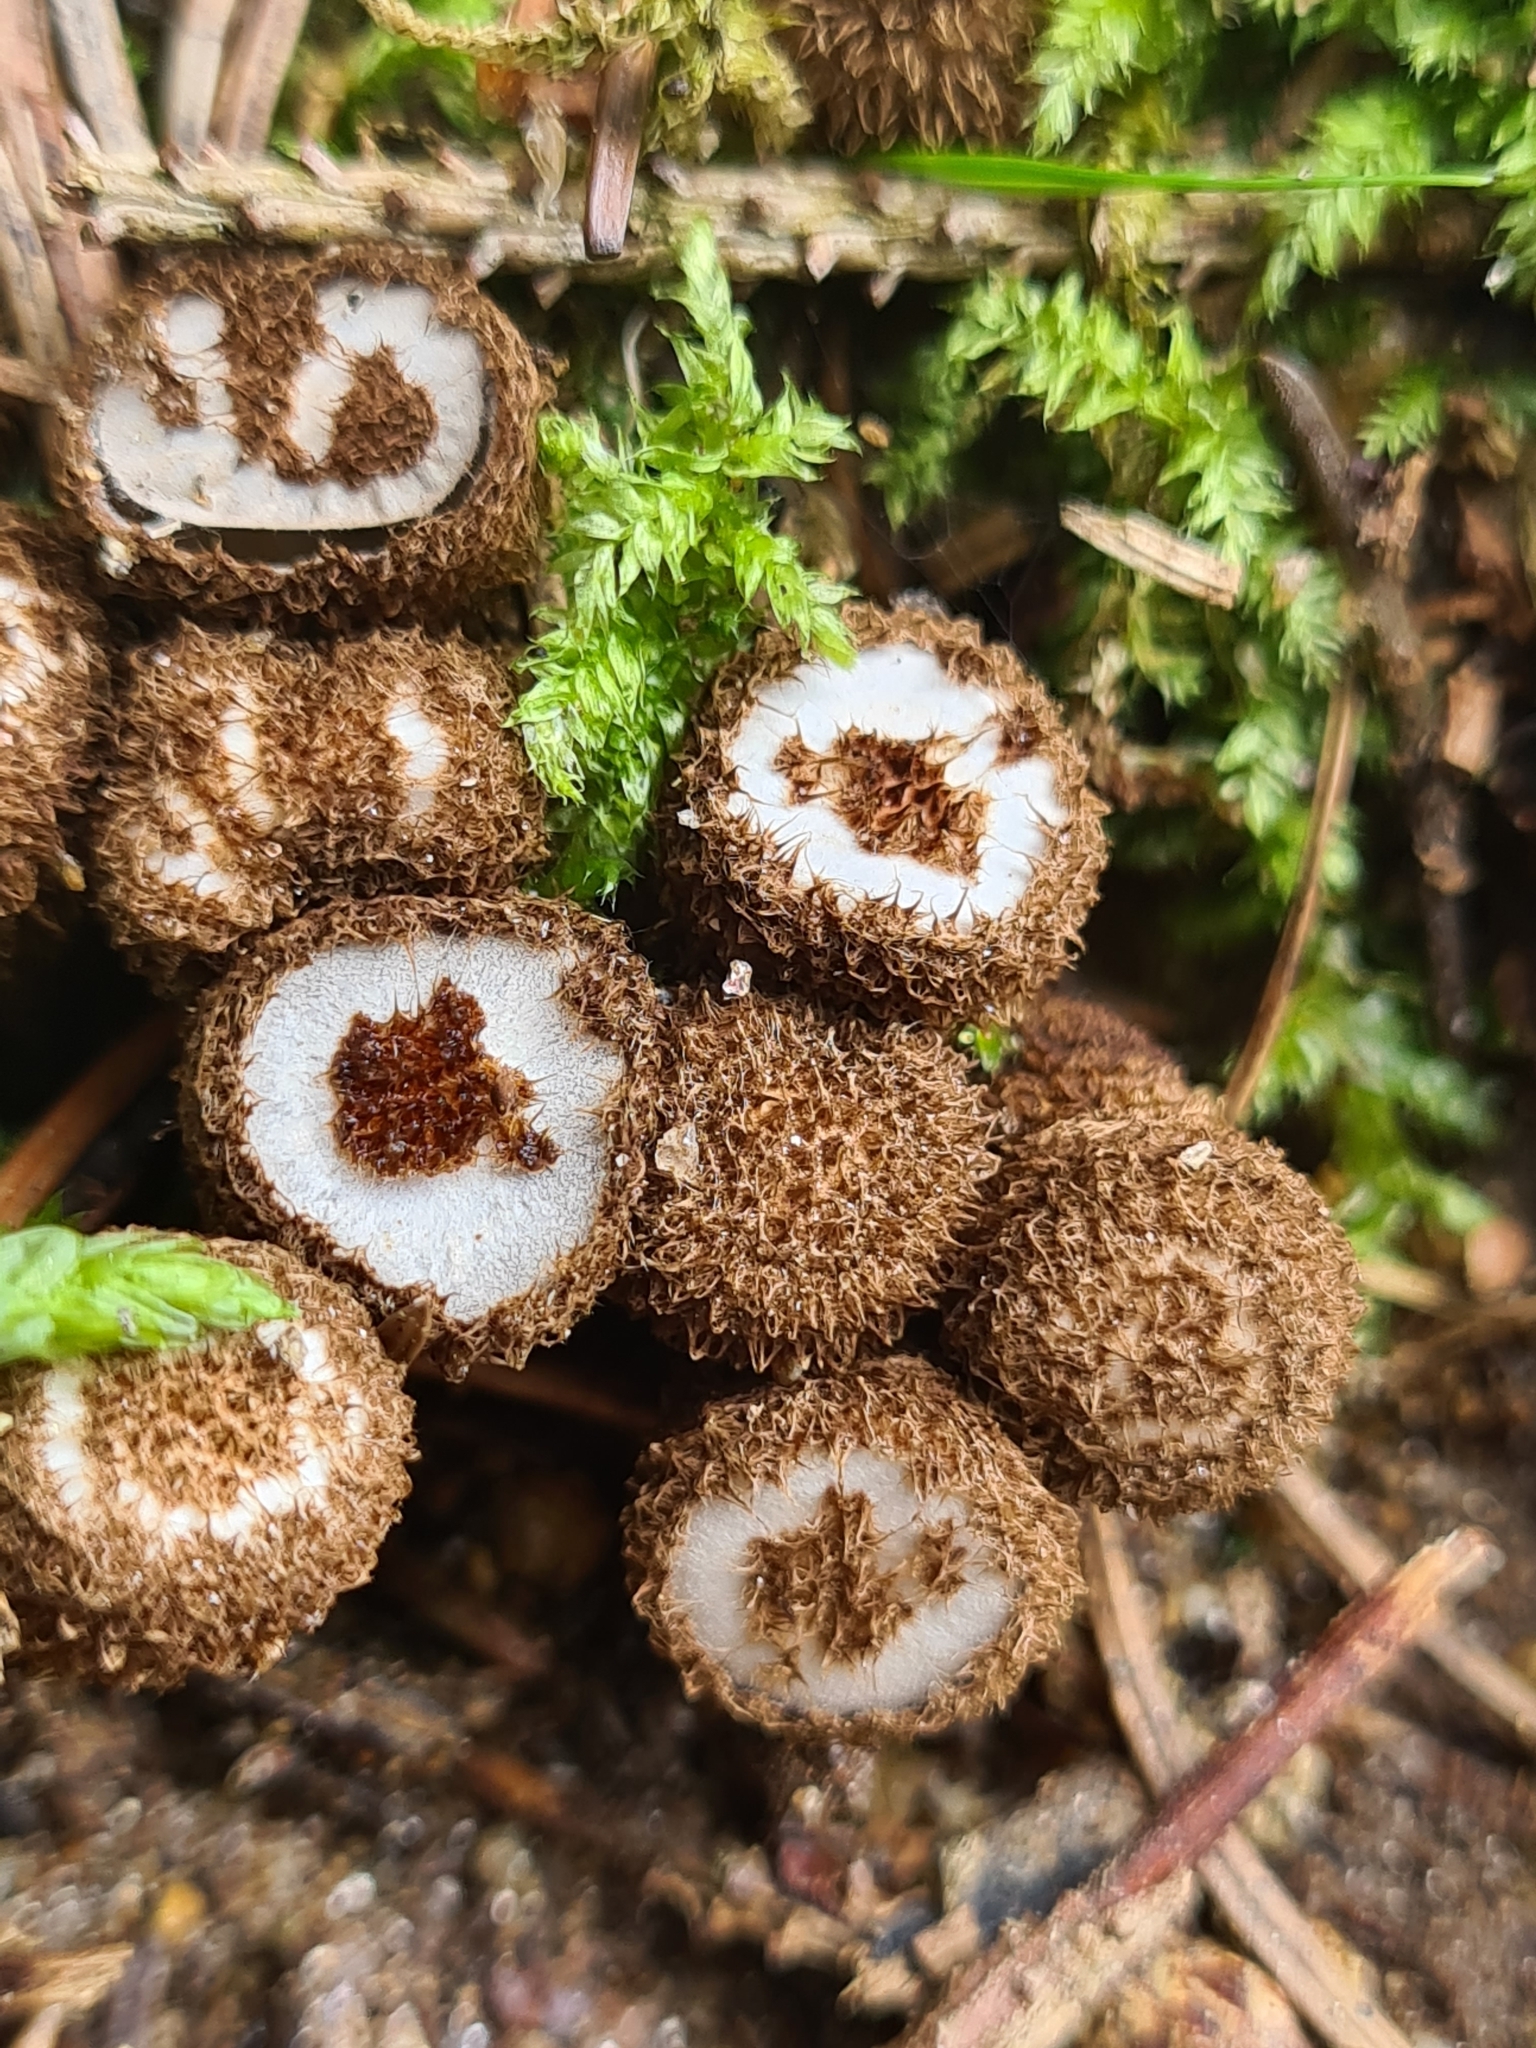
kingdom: Fungi
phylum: Basidiomycota
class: Agaricomycetes
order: Agaricales
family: Agaricaceae
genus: Cyathus
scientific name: Cyathus striatus
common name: Fluted bird's nest
